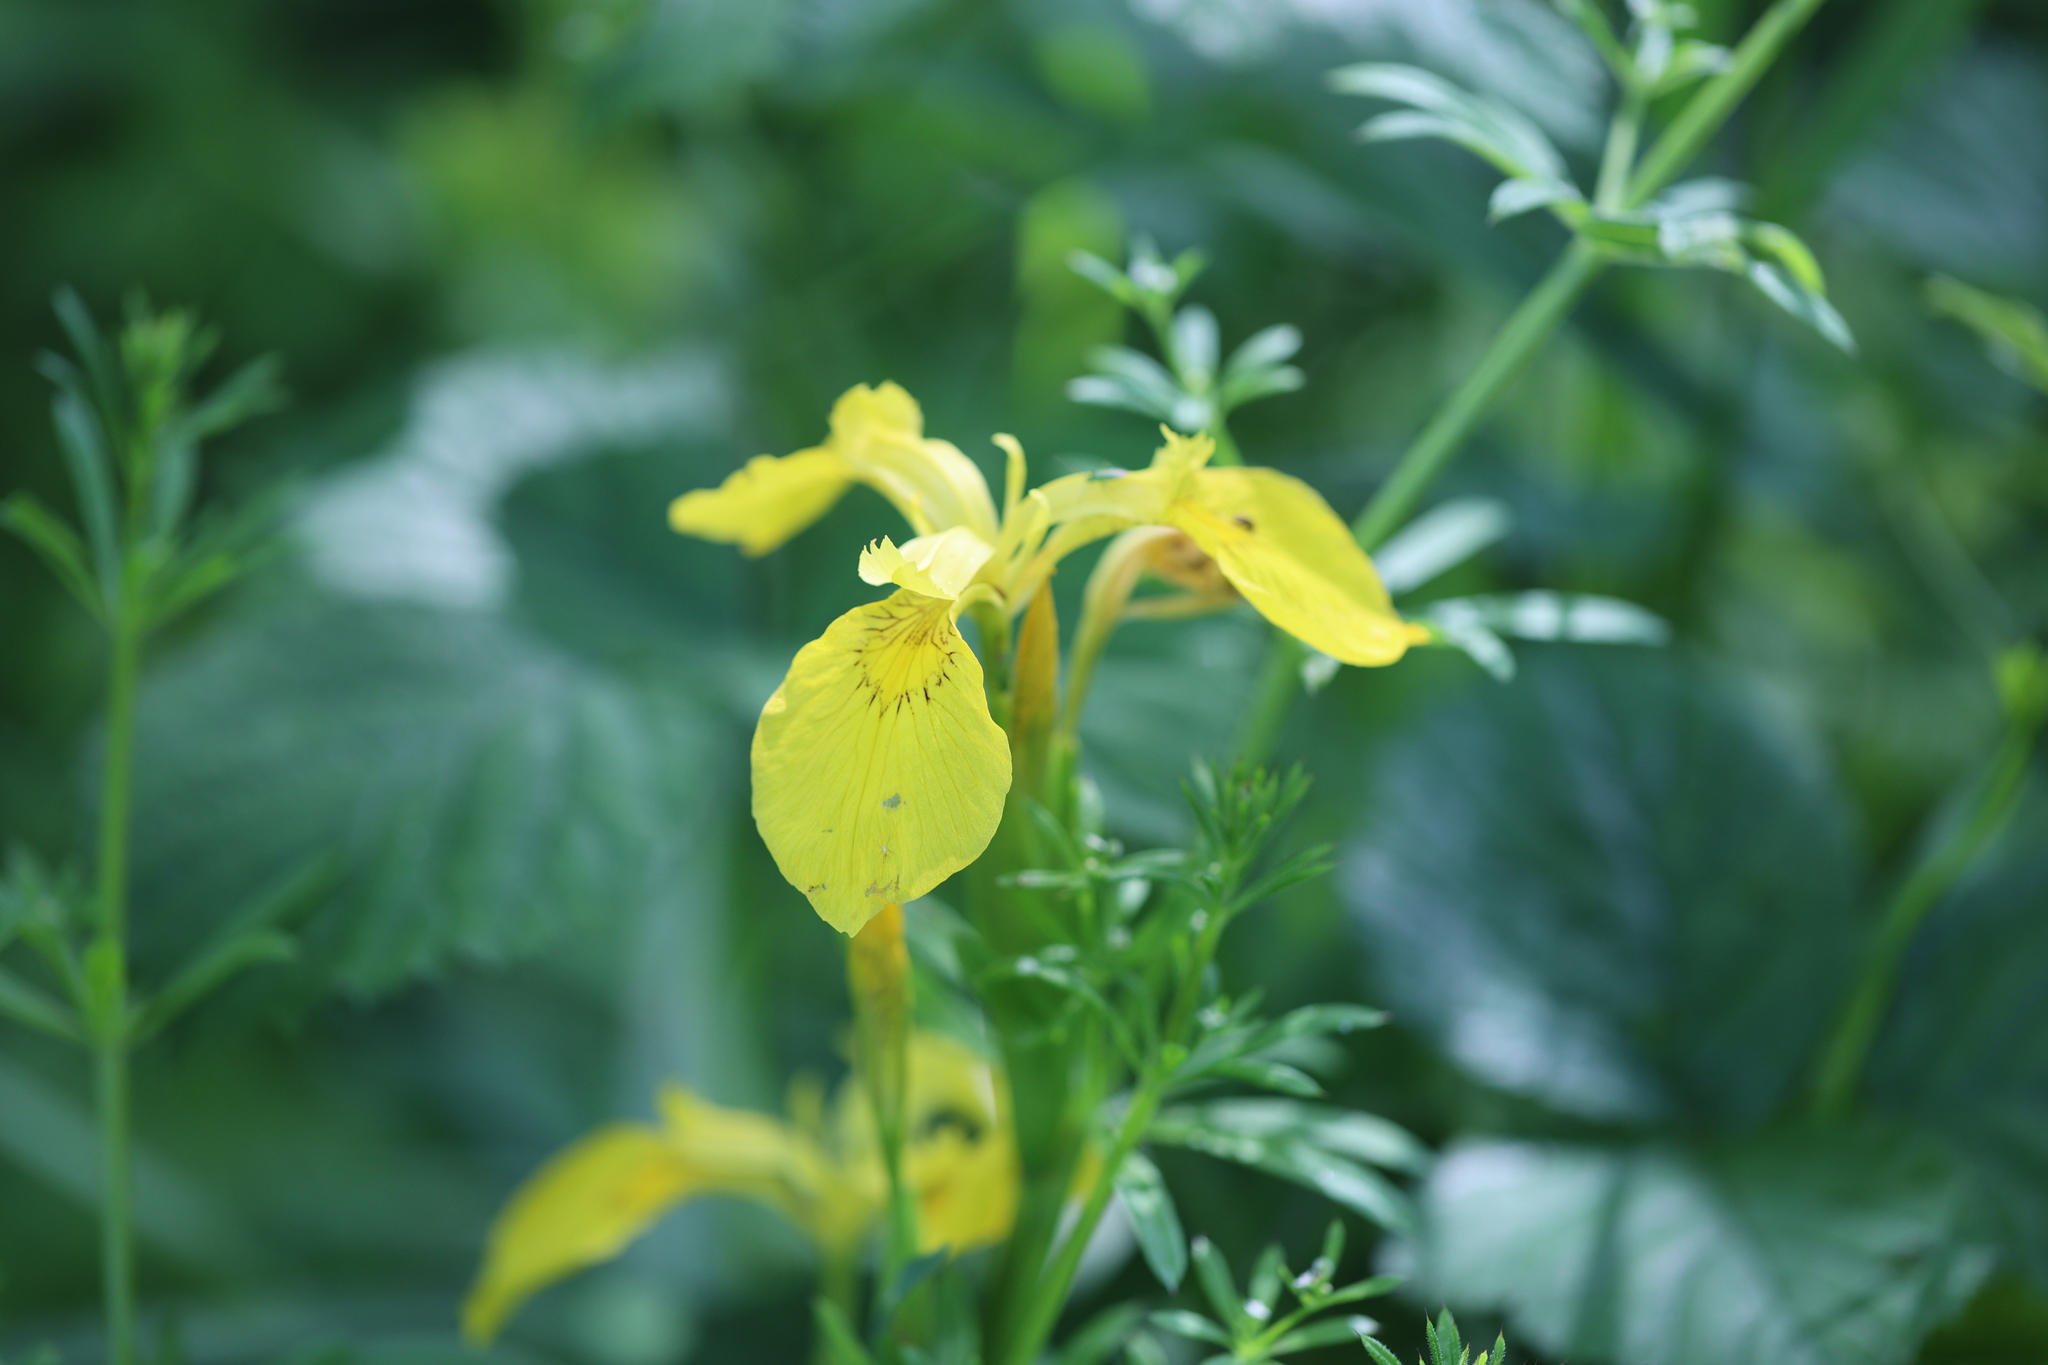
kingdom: Plantae
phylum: Tracheophyta
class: Liliopsida
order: Asparagales
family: Iridaceae
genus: Iris
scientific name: Iris pseudacorus
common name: Yellow flag
